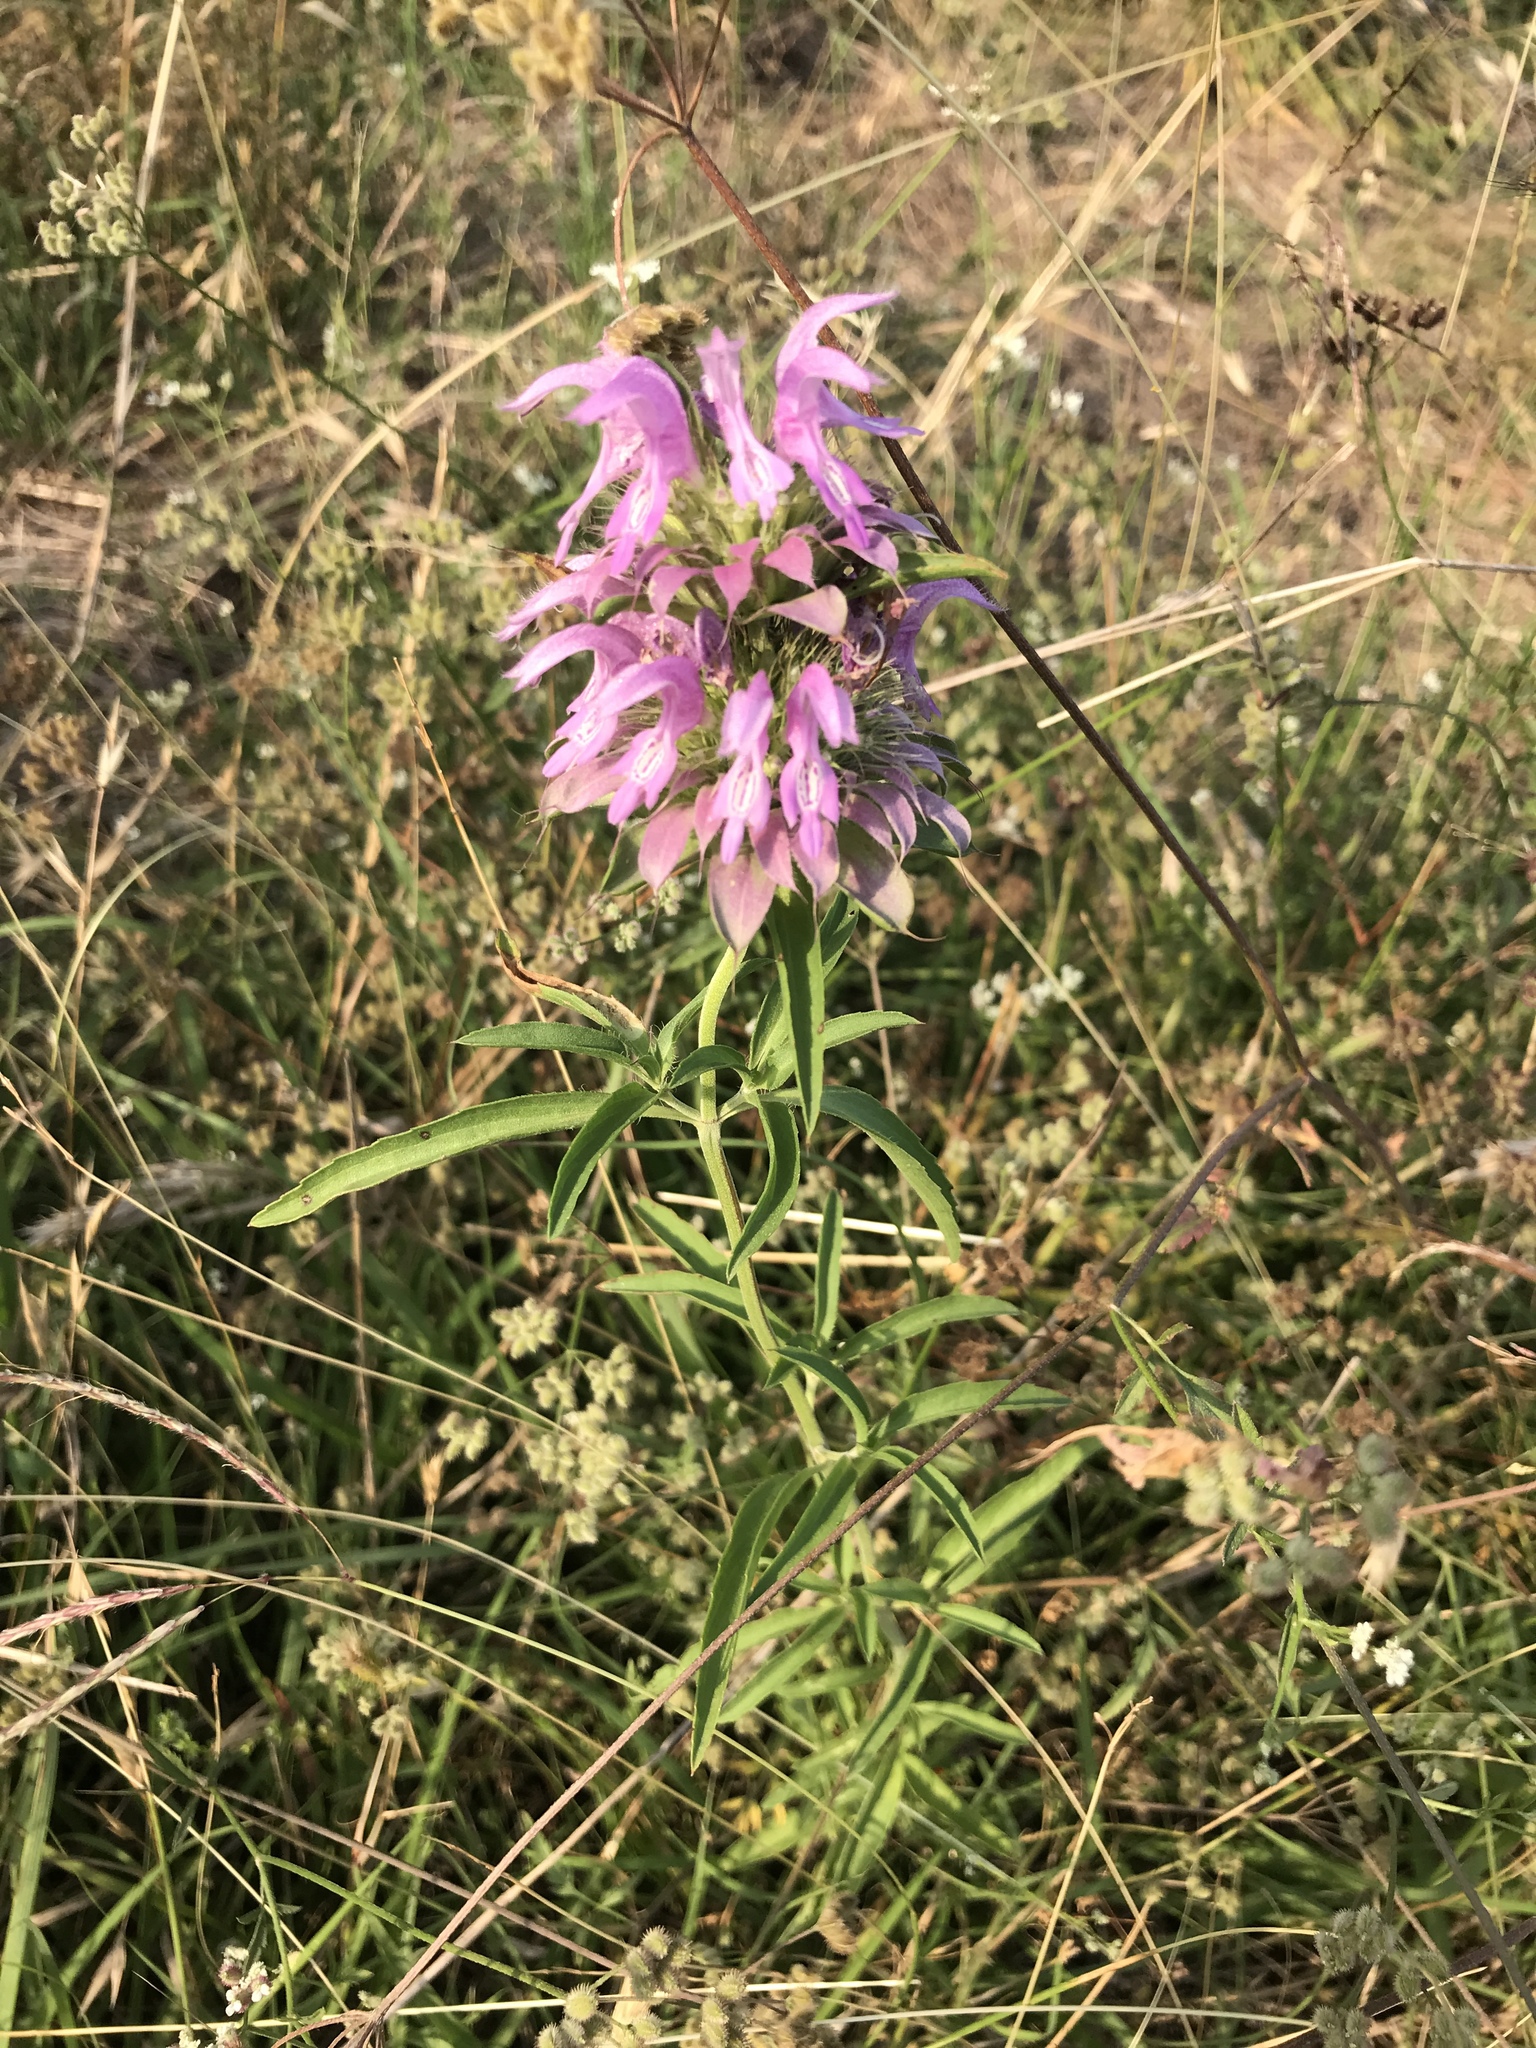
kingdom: Plantae
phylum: Tracheophyta
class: Magnoliopsida
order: Lamiales
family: Lamiaceae
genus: Monarda
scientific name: Monarda citriodora
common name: Lemon beebalm
